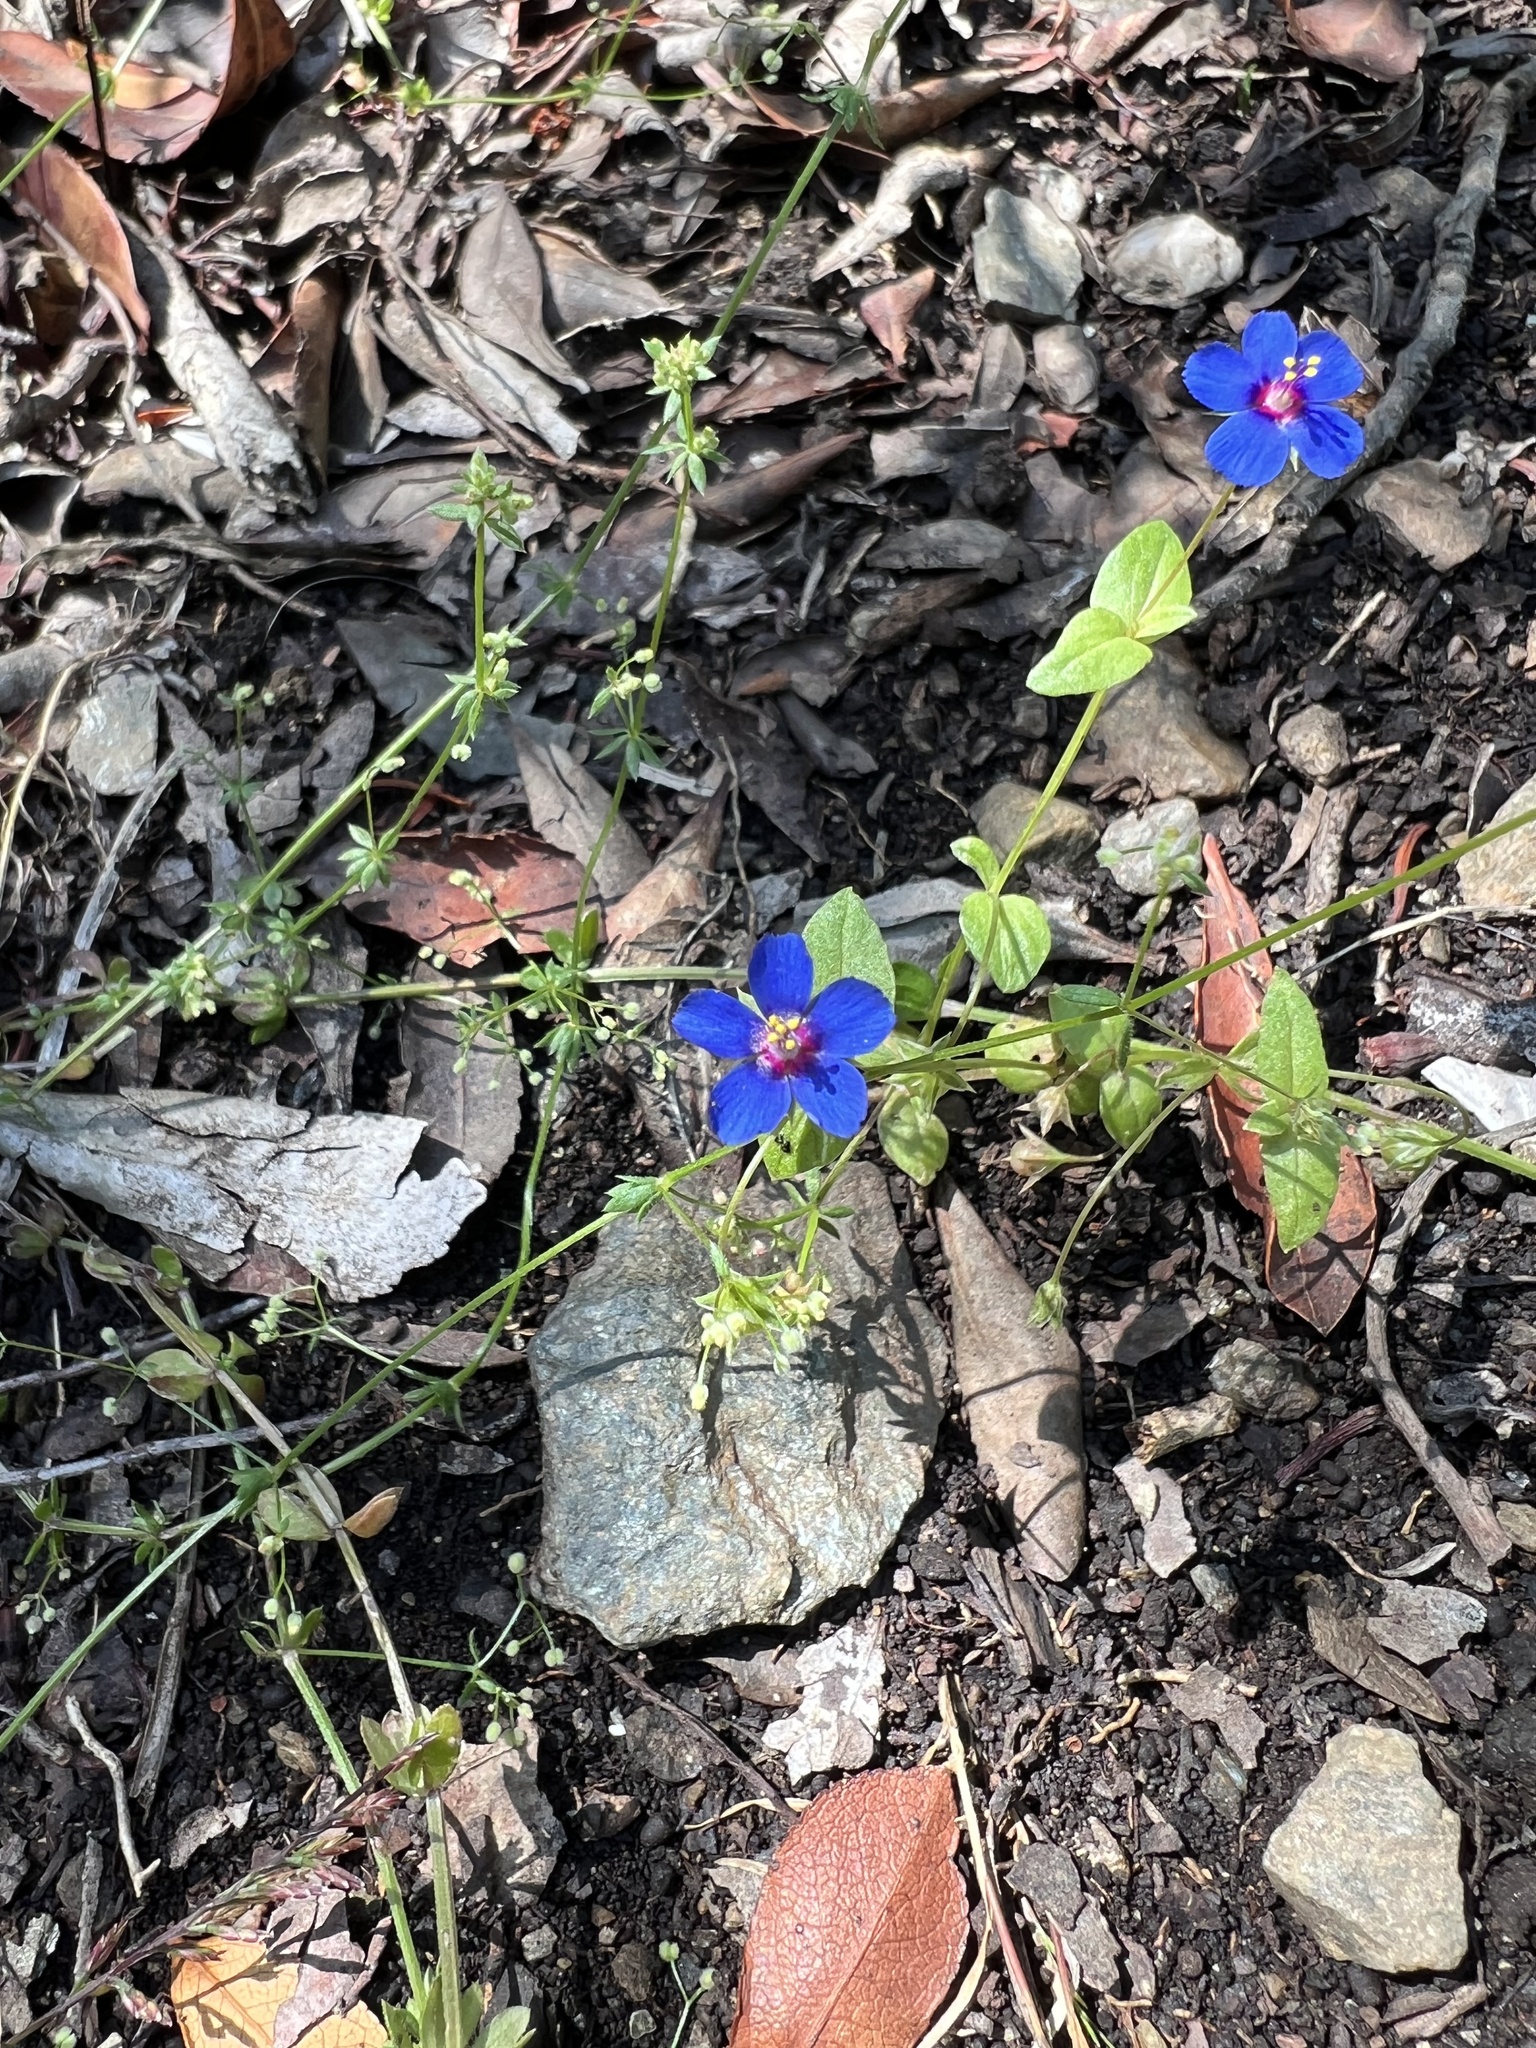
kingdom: Plantae
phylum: Tracheophyta
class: Magnoliopsida
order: Ericales
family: Primulaceae
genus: Lysimachia
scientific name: Lysimachia loeflingii
